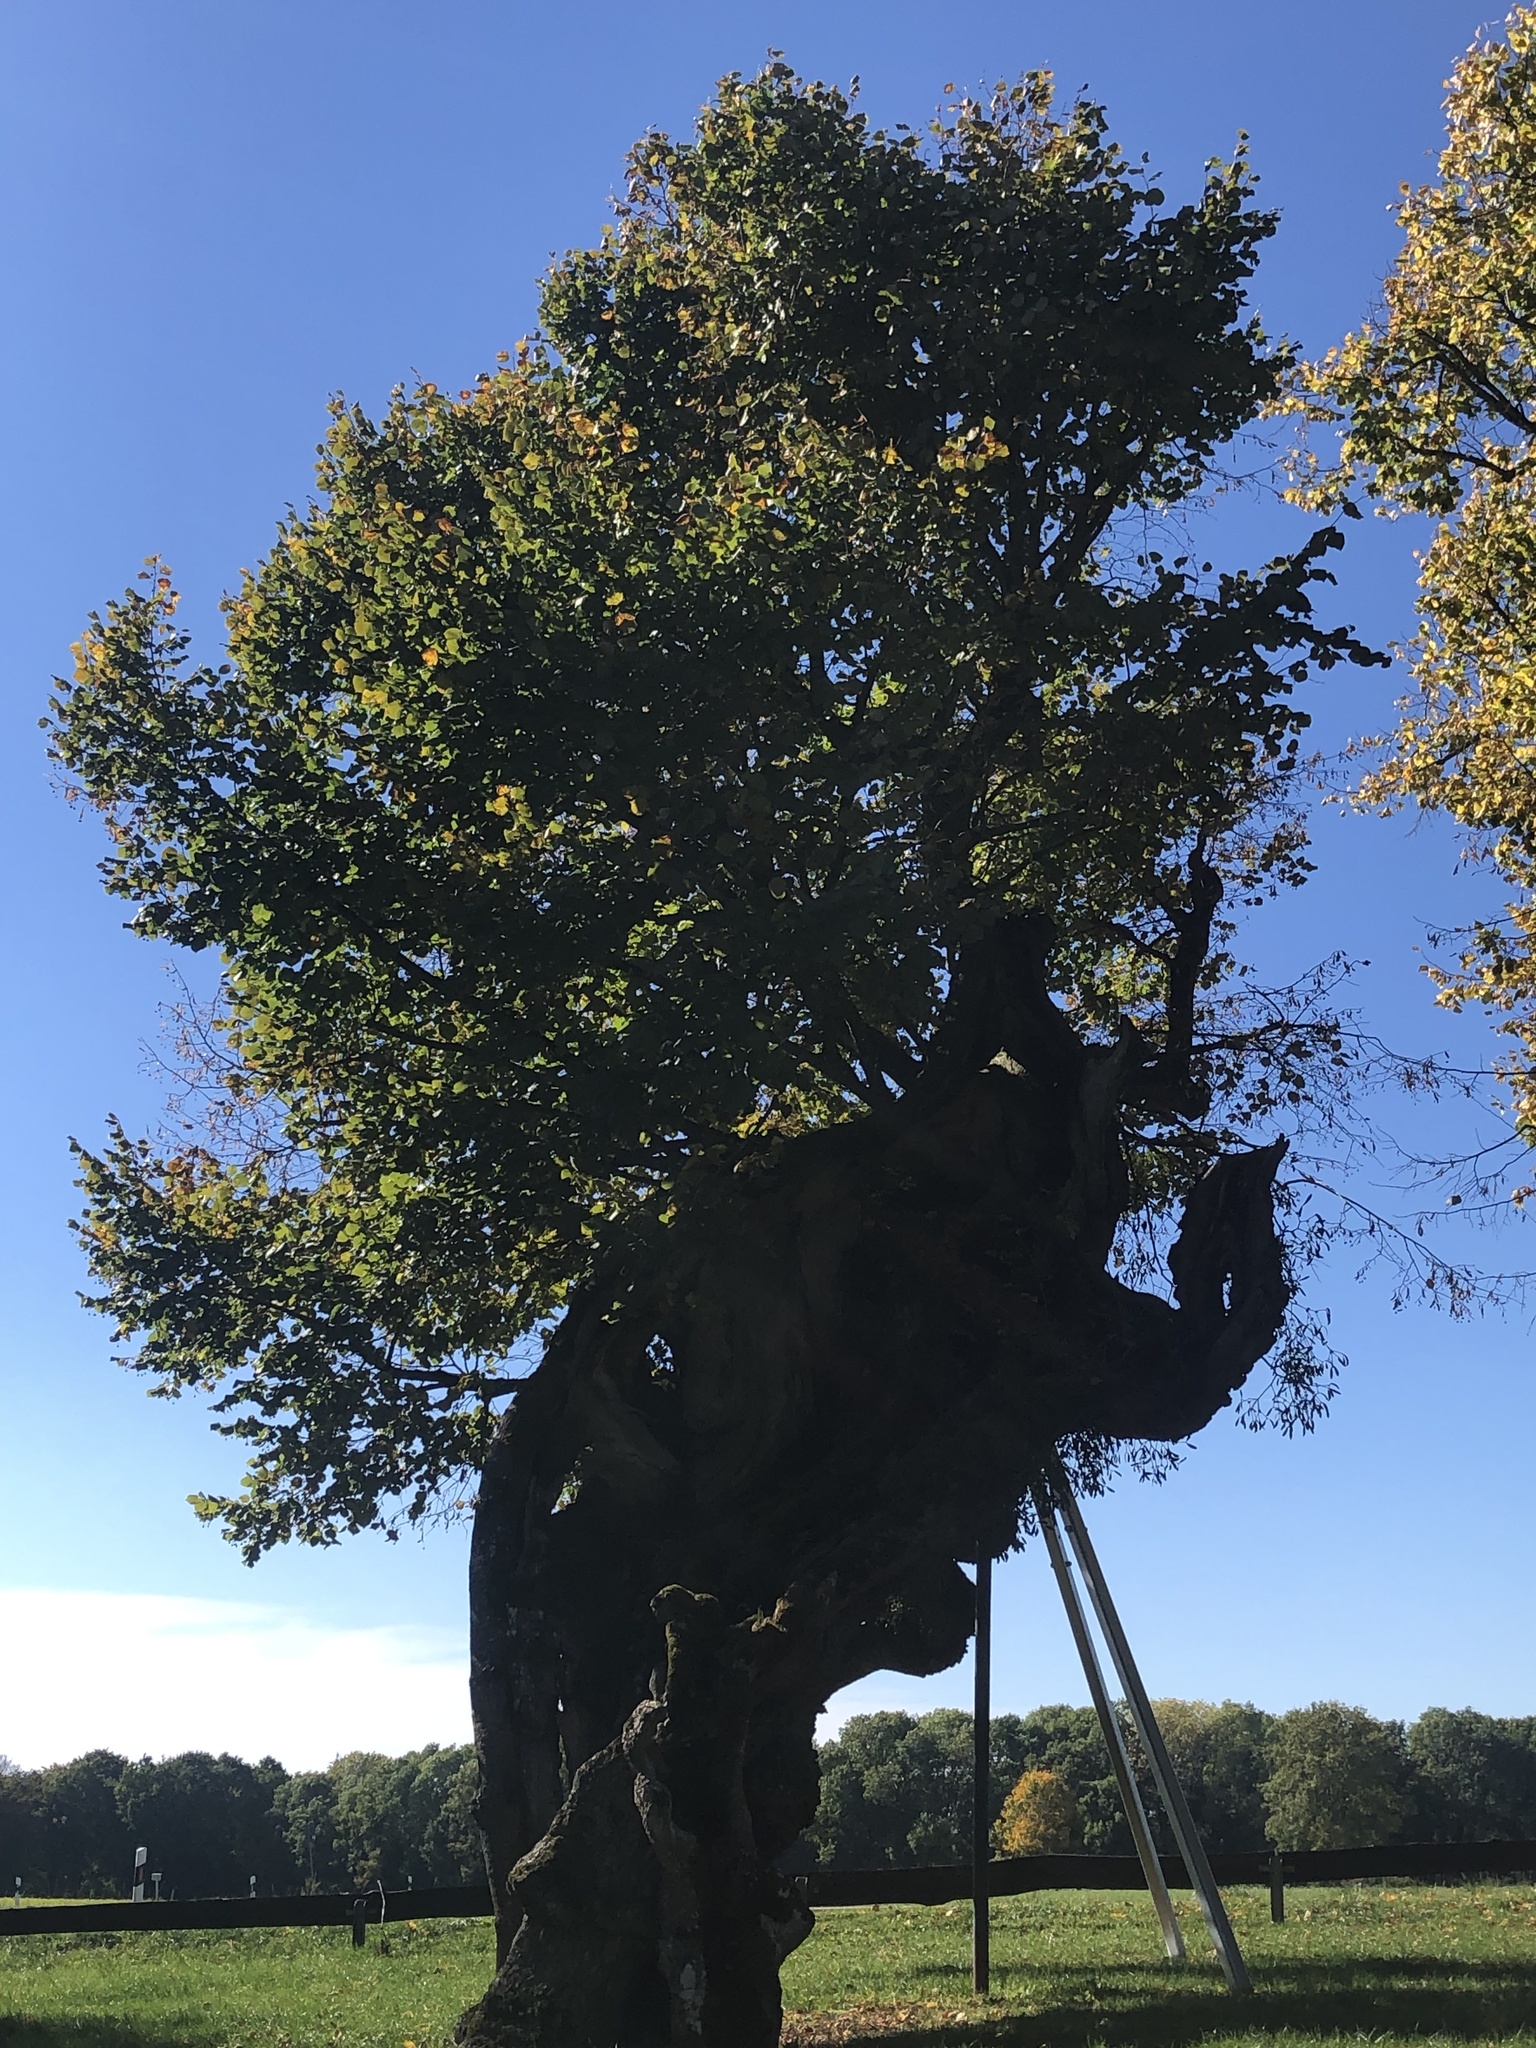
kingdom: Plantae
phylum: Tracheophyta
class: Magnoliopsida
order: Malvales
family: Malvaceae
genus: Tilia
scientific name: Tilia platyphyllos
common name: Large-leaved lime
